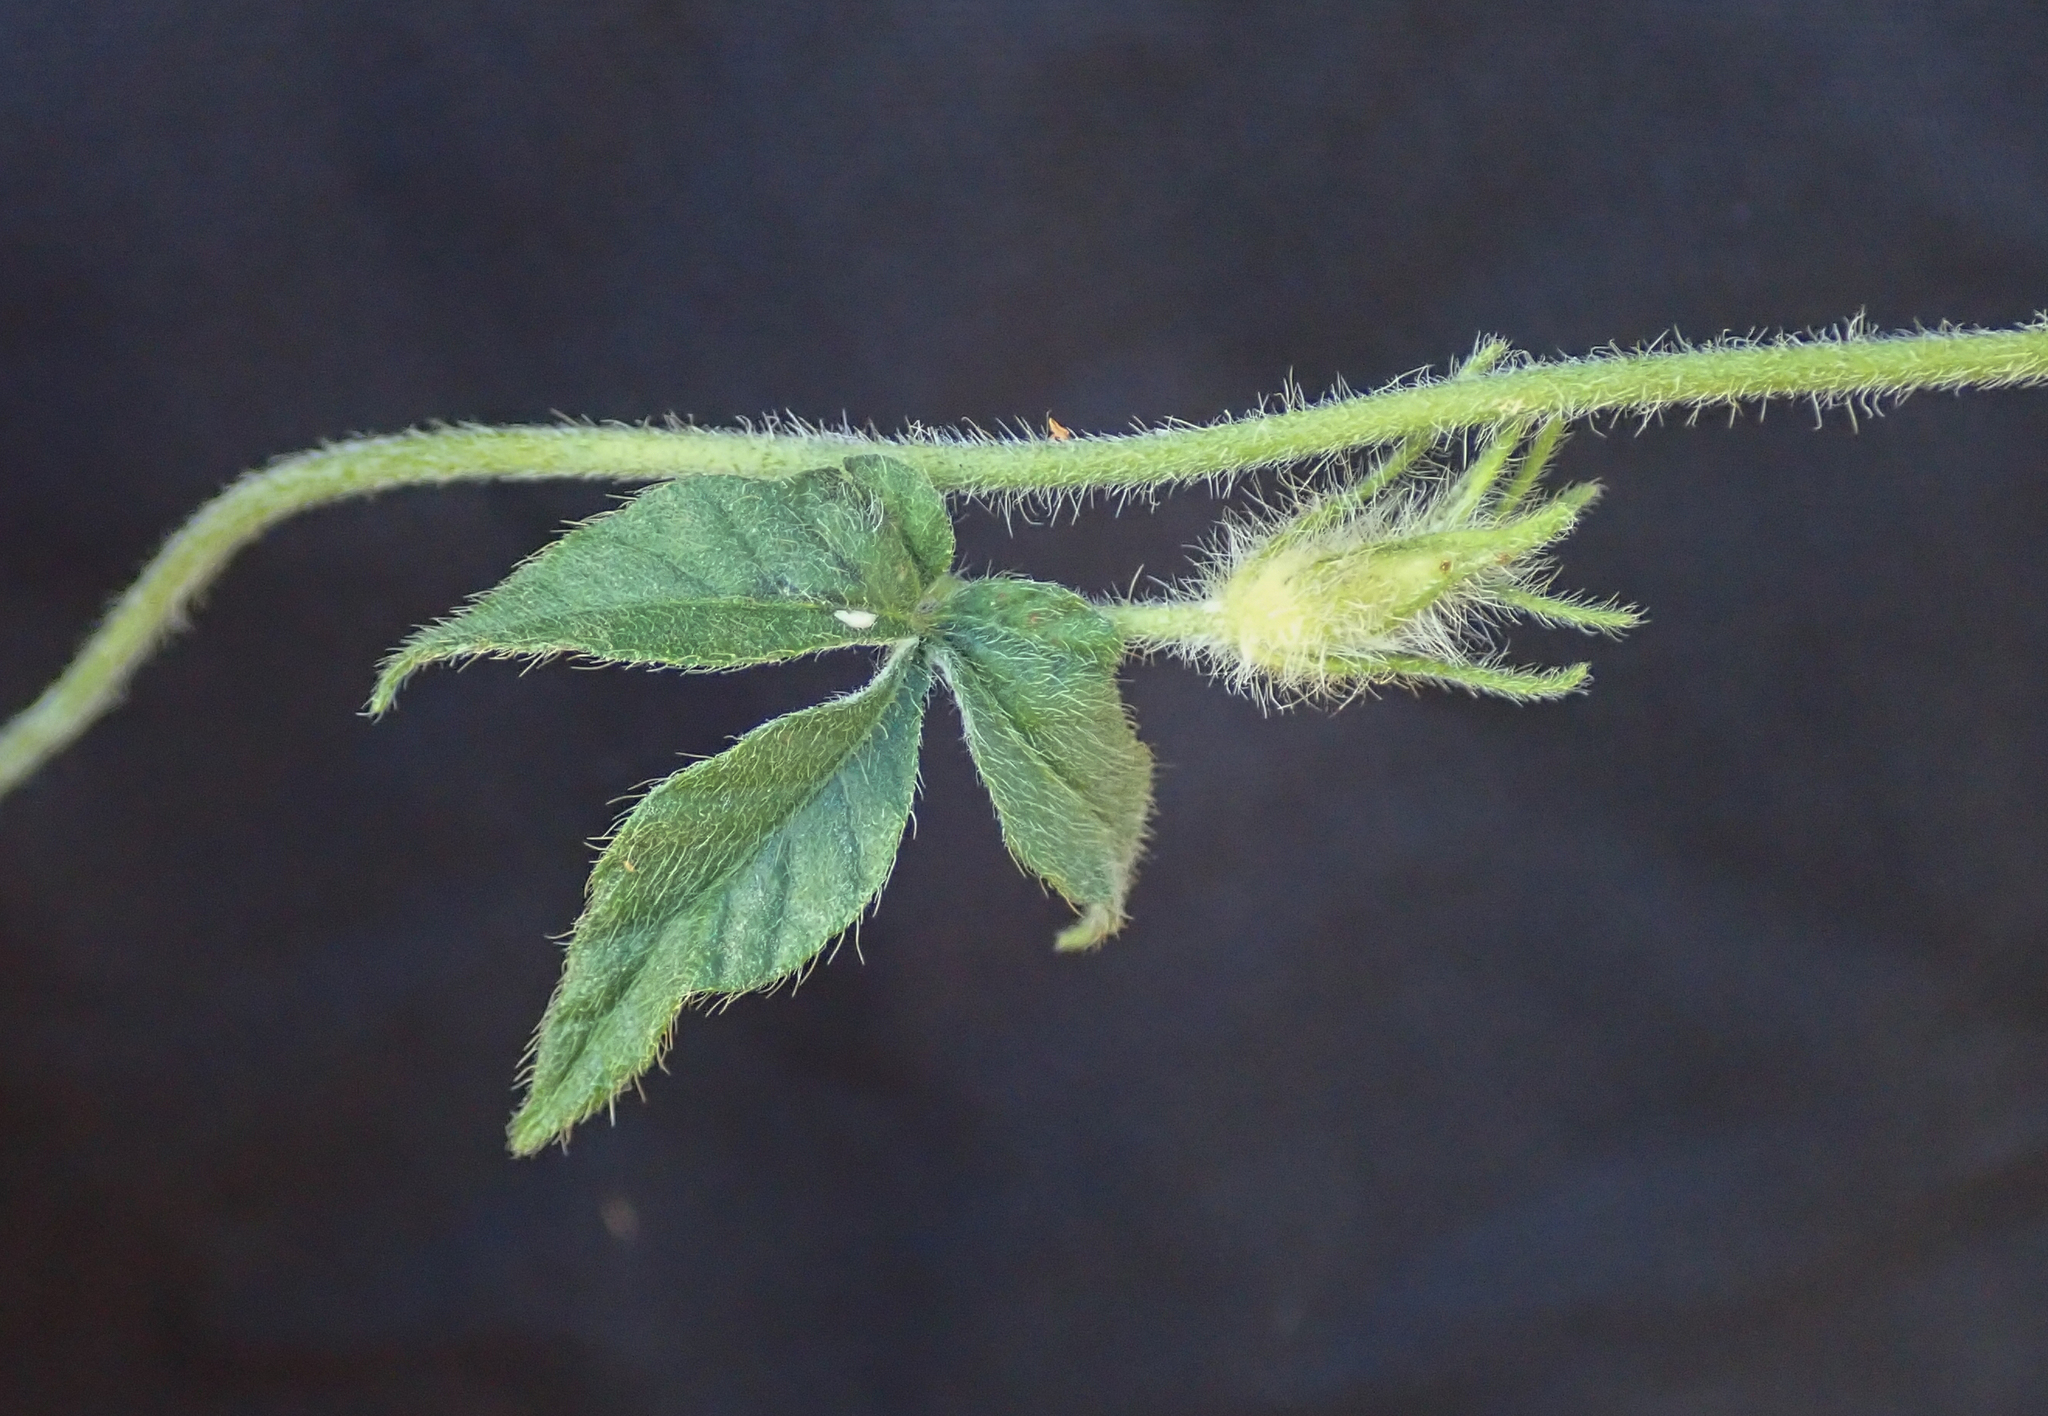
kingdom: Plantae
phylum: Tracheophyta
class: Magnoliopsida
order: Solanales
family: Convolvulaceae
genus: Ipomoea
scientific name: Ipomoea magnusiana
